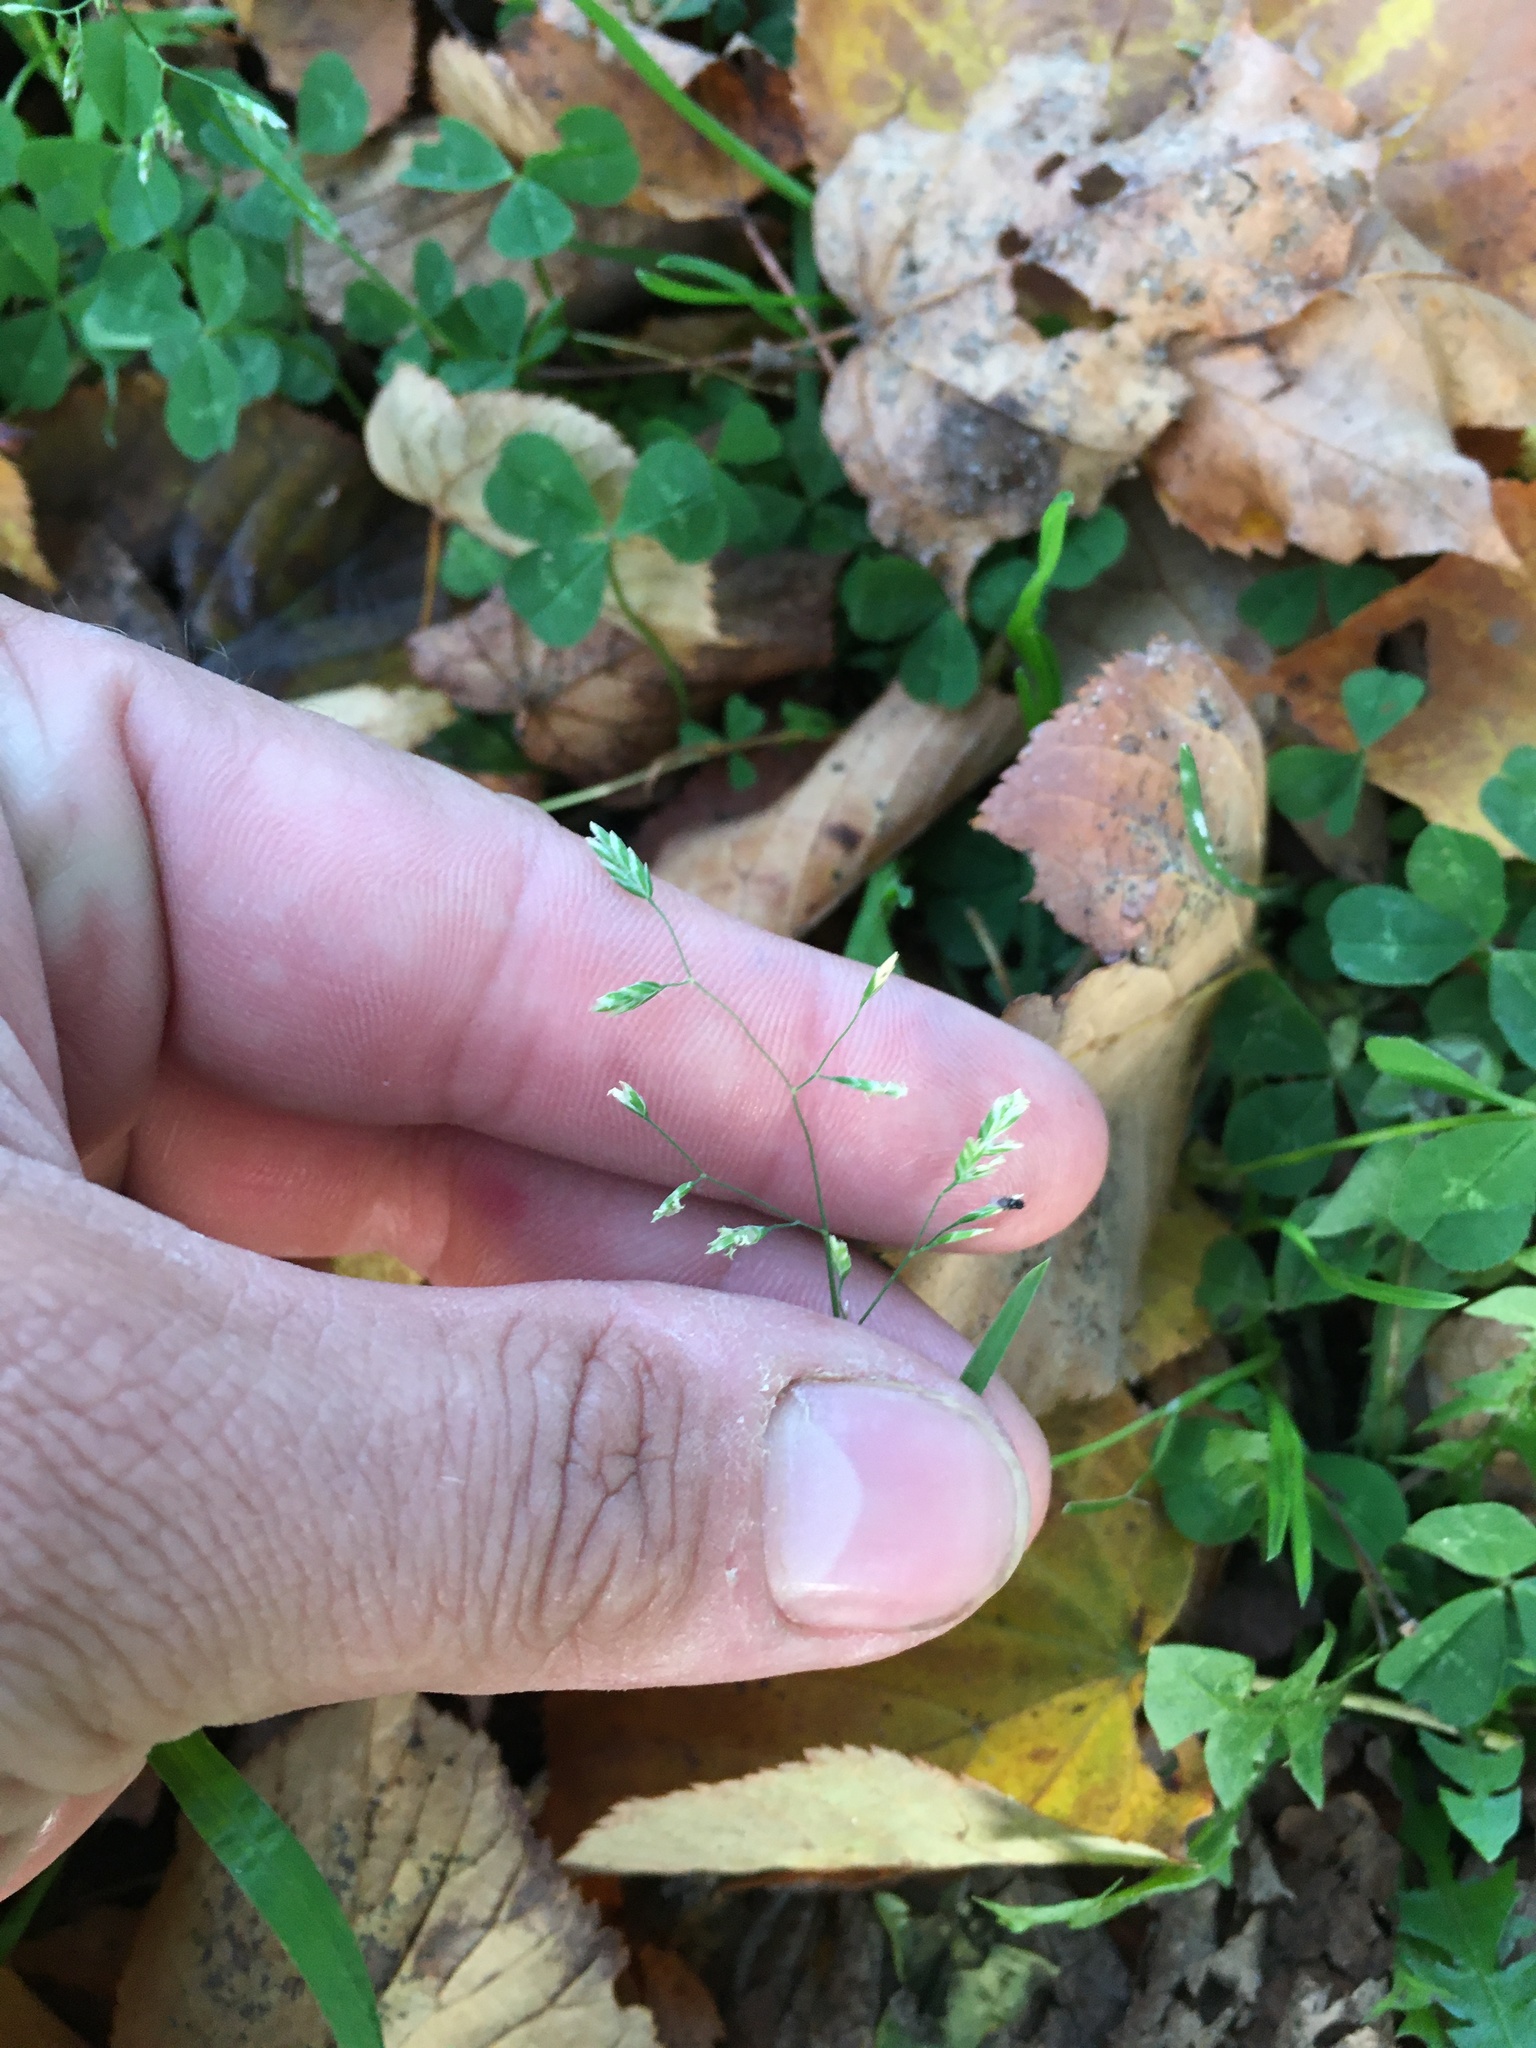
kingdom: Plantae
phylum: Tracheophyta
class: Liliopsida
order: Poales
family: Poaceae
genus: Poa
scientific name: Poa annua
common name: Annual bluegrass
